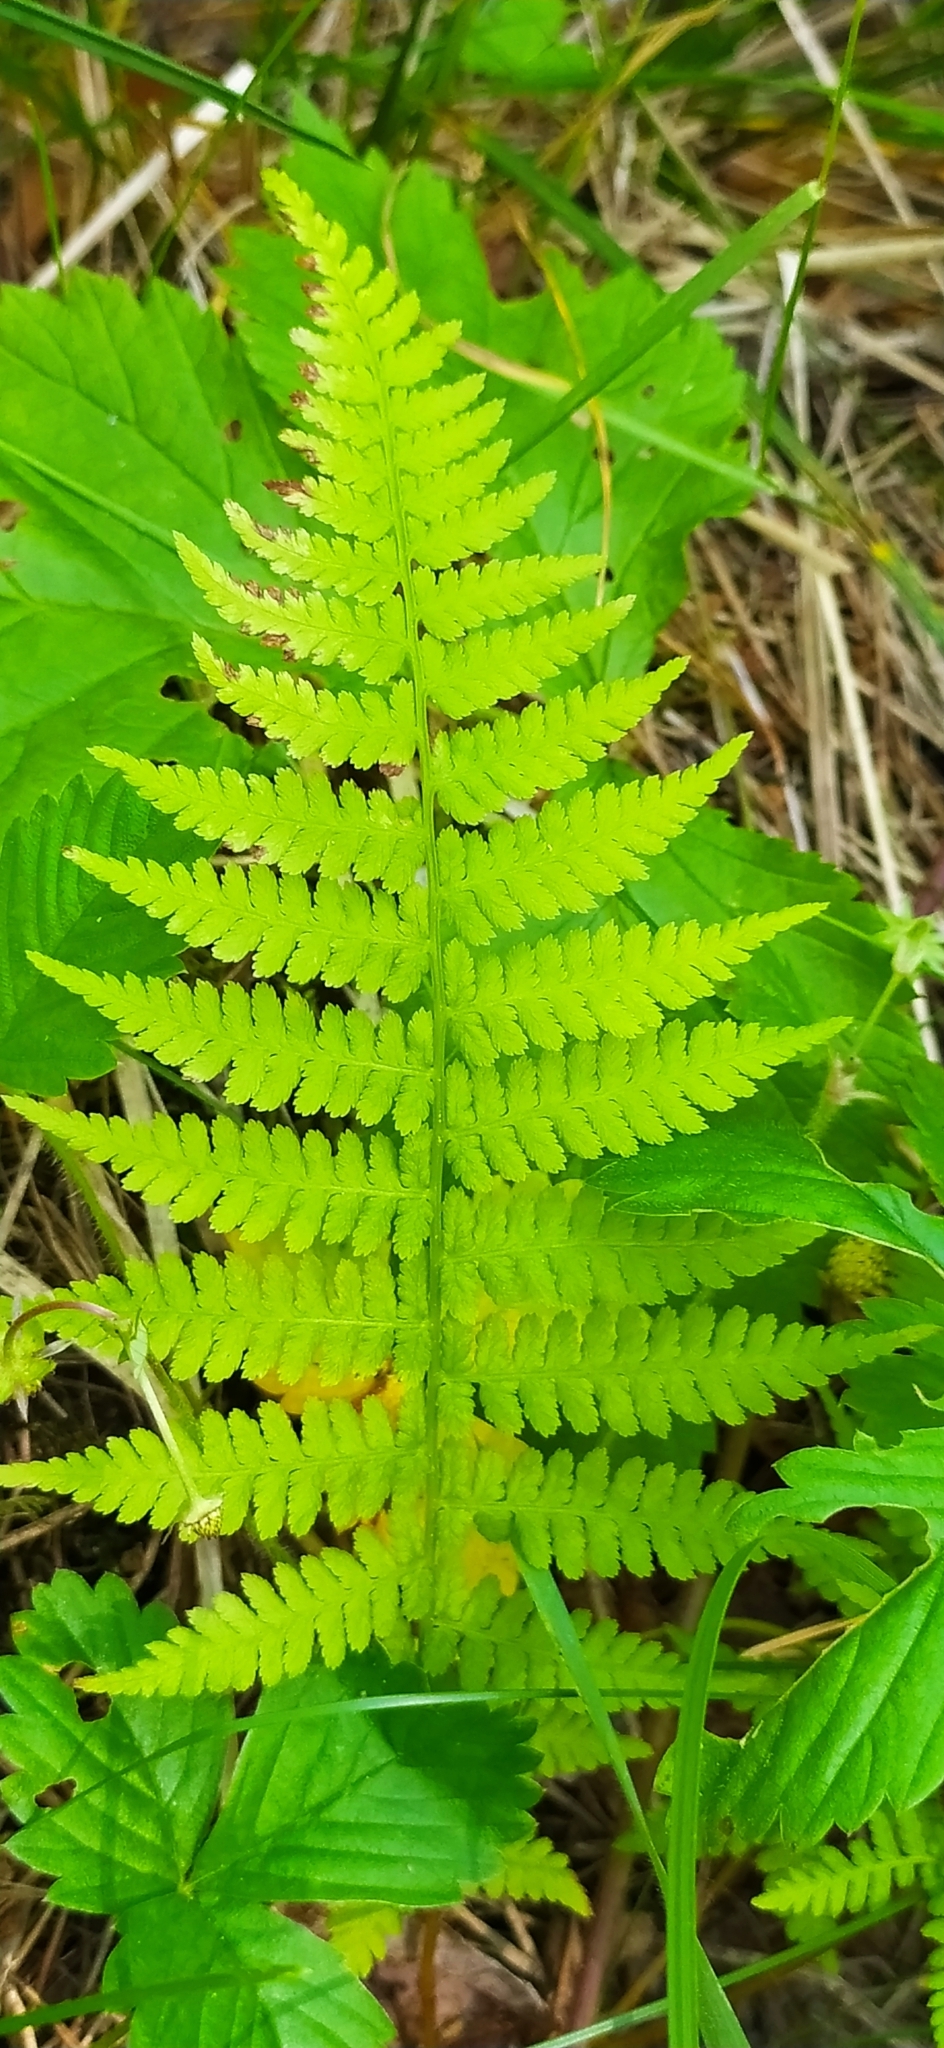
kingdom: Plantae
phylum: Tracheophyta
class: Polypodiopsida
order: Polypodiales
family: Athyriaceae
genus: Athyrium
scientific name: Athyrium filix-femina
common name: Lady fern
